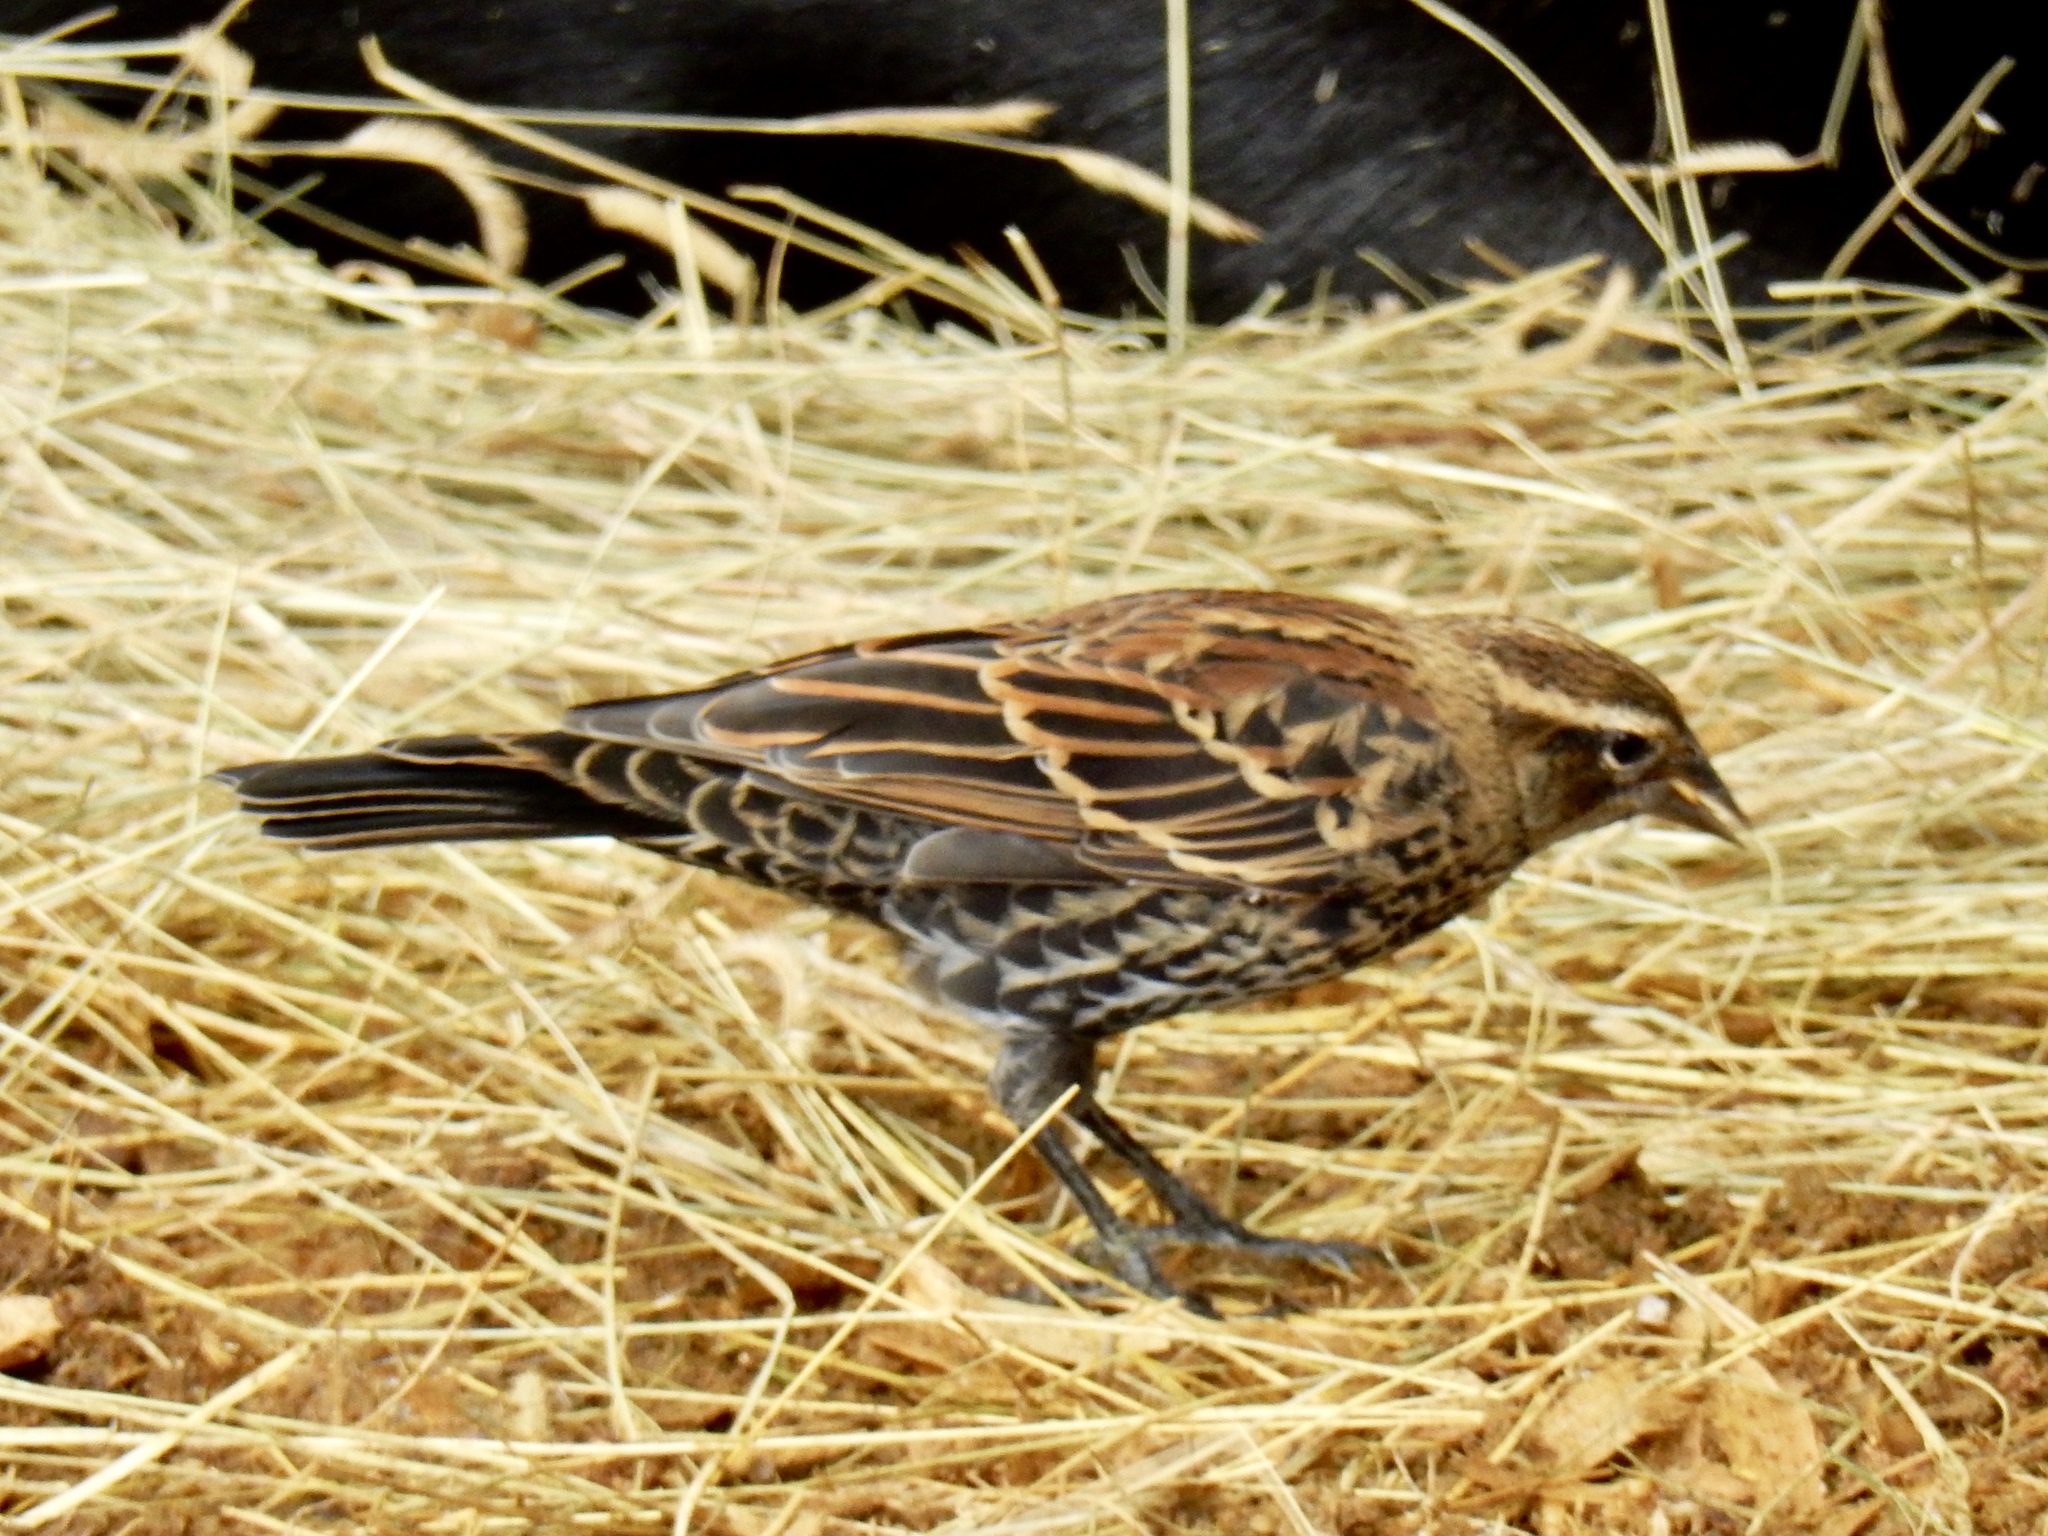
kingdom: Animalia
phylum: Chordata
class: Aves
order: Passeriformes
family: Icteridae
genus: Agelaius
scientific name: Agelaius phoeniceus
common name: Red-winged blackbird
